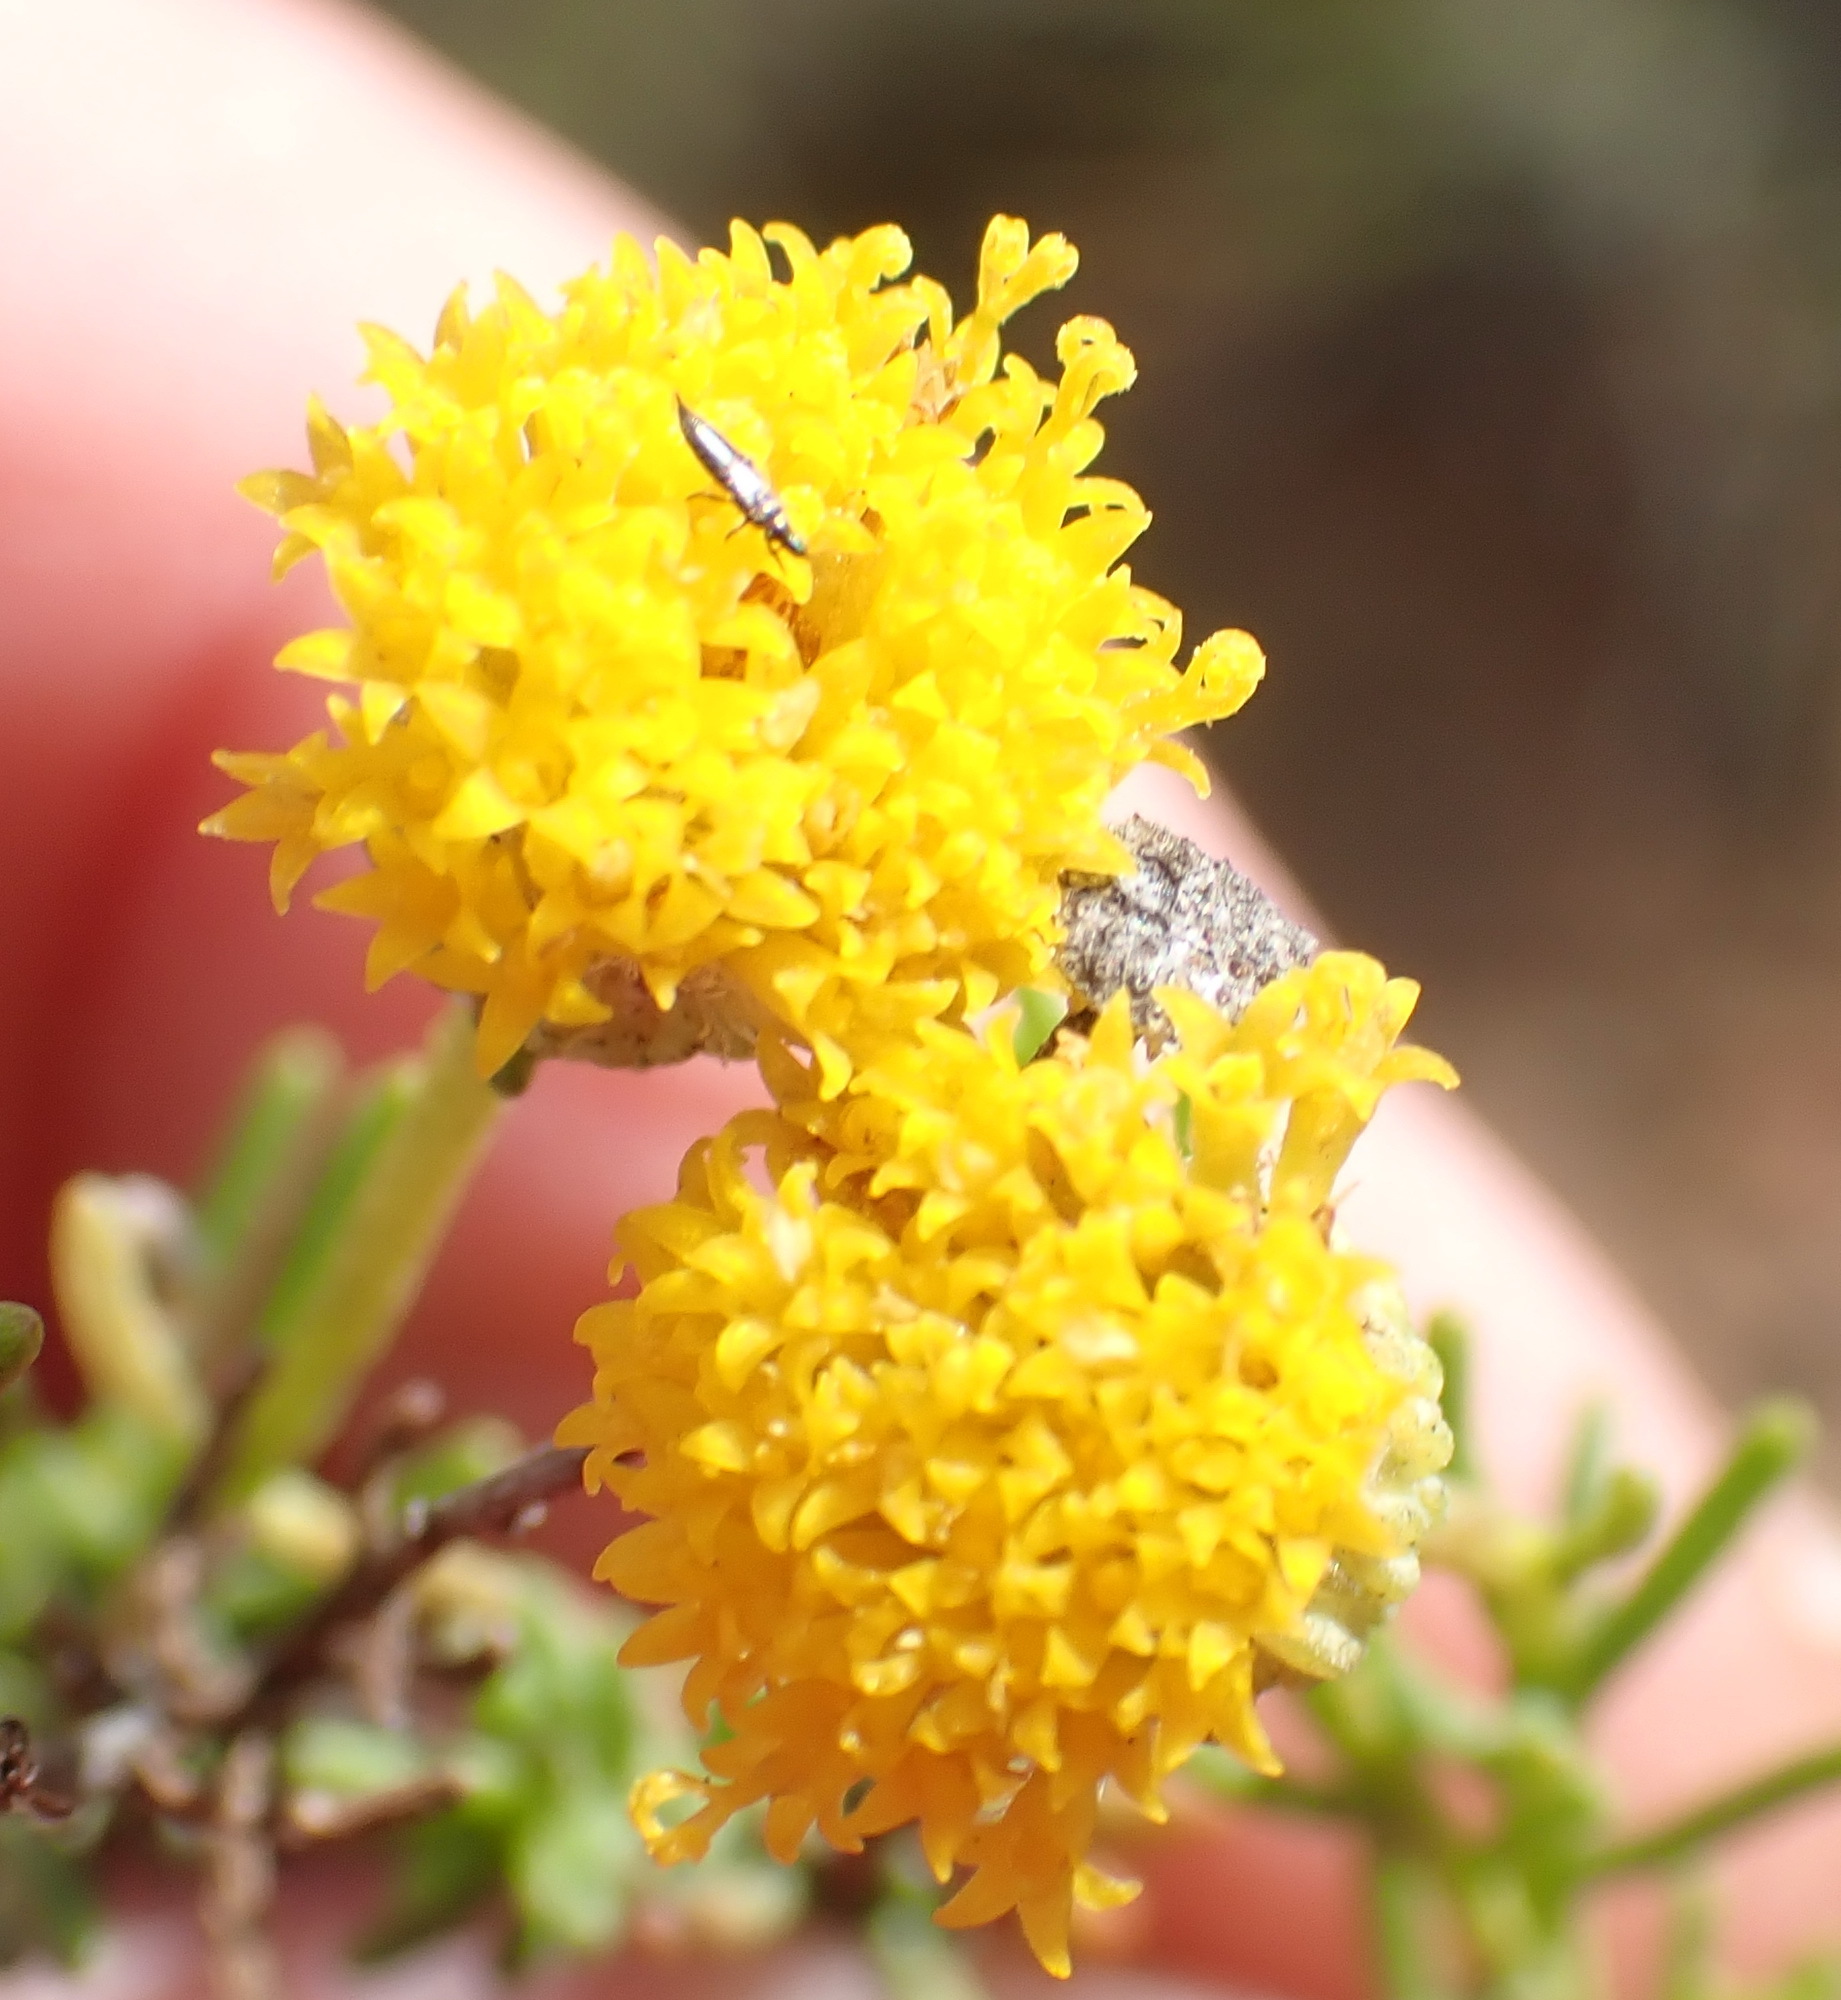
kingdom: Plantae
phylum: Tracheophyta
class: Magnoliopsida
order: Asterales
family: Asteraceae
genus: Chrysocoma
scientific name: Chrysocoma ciliata
